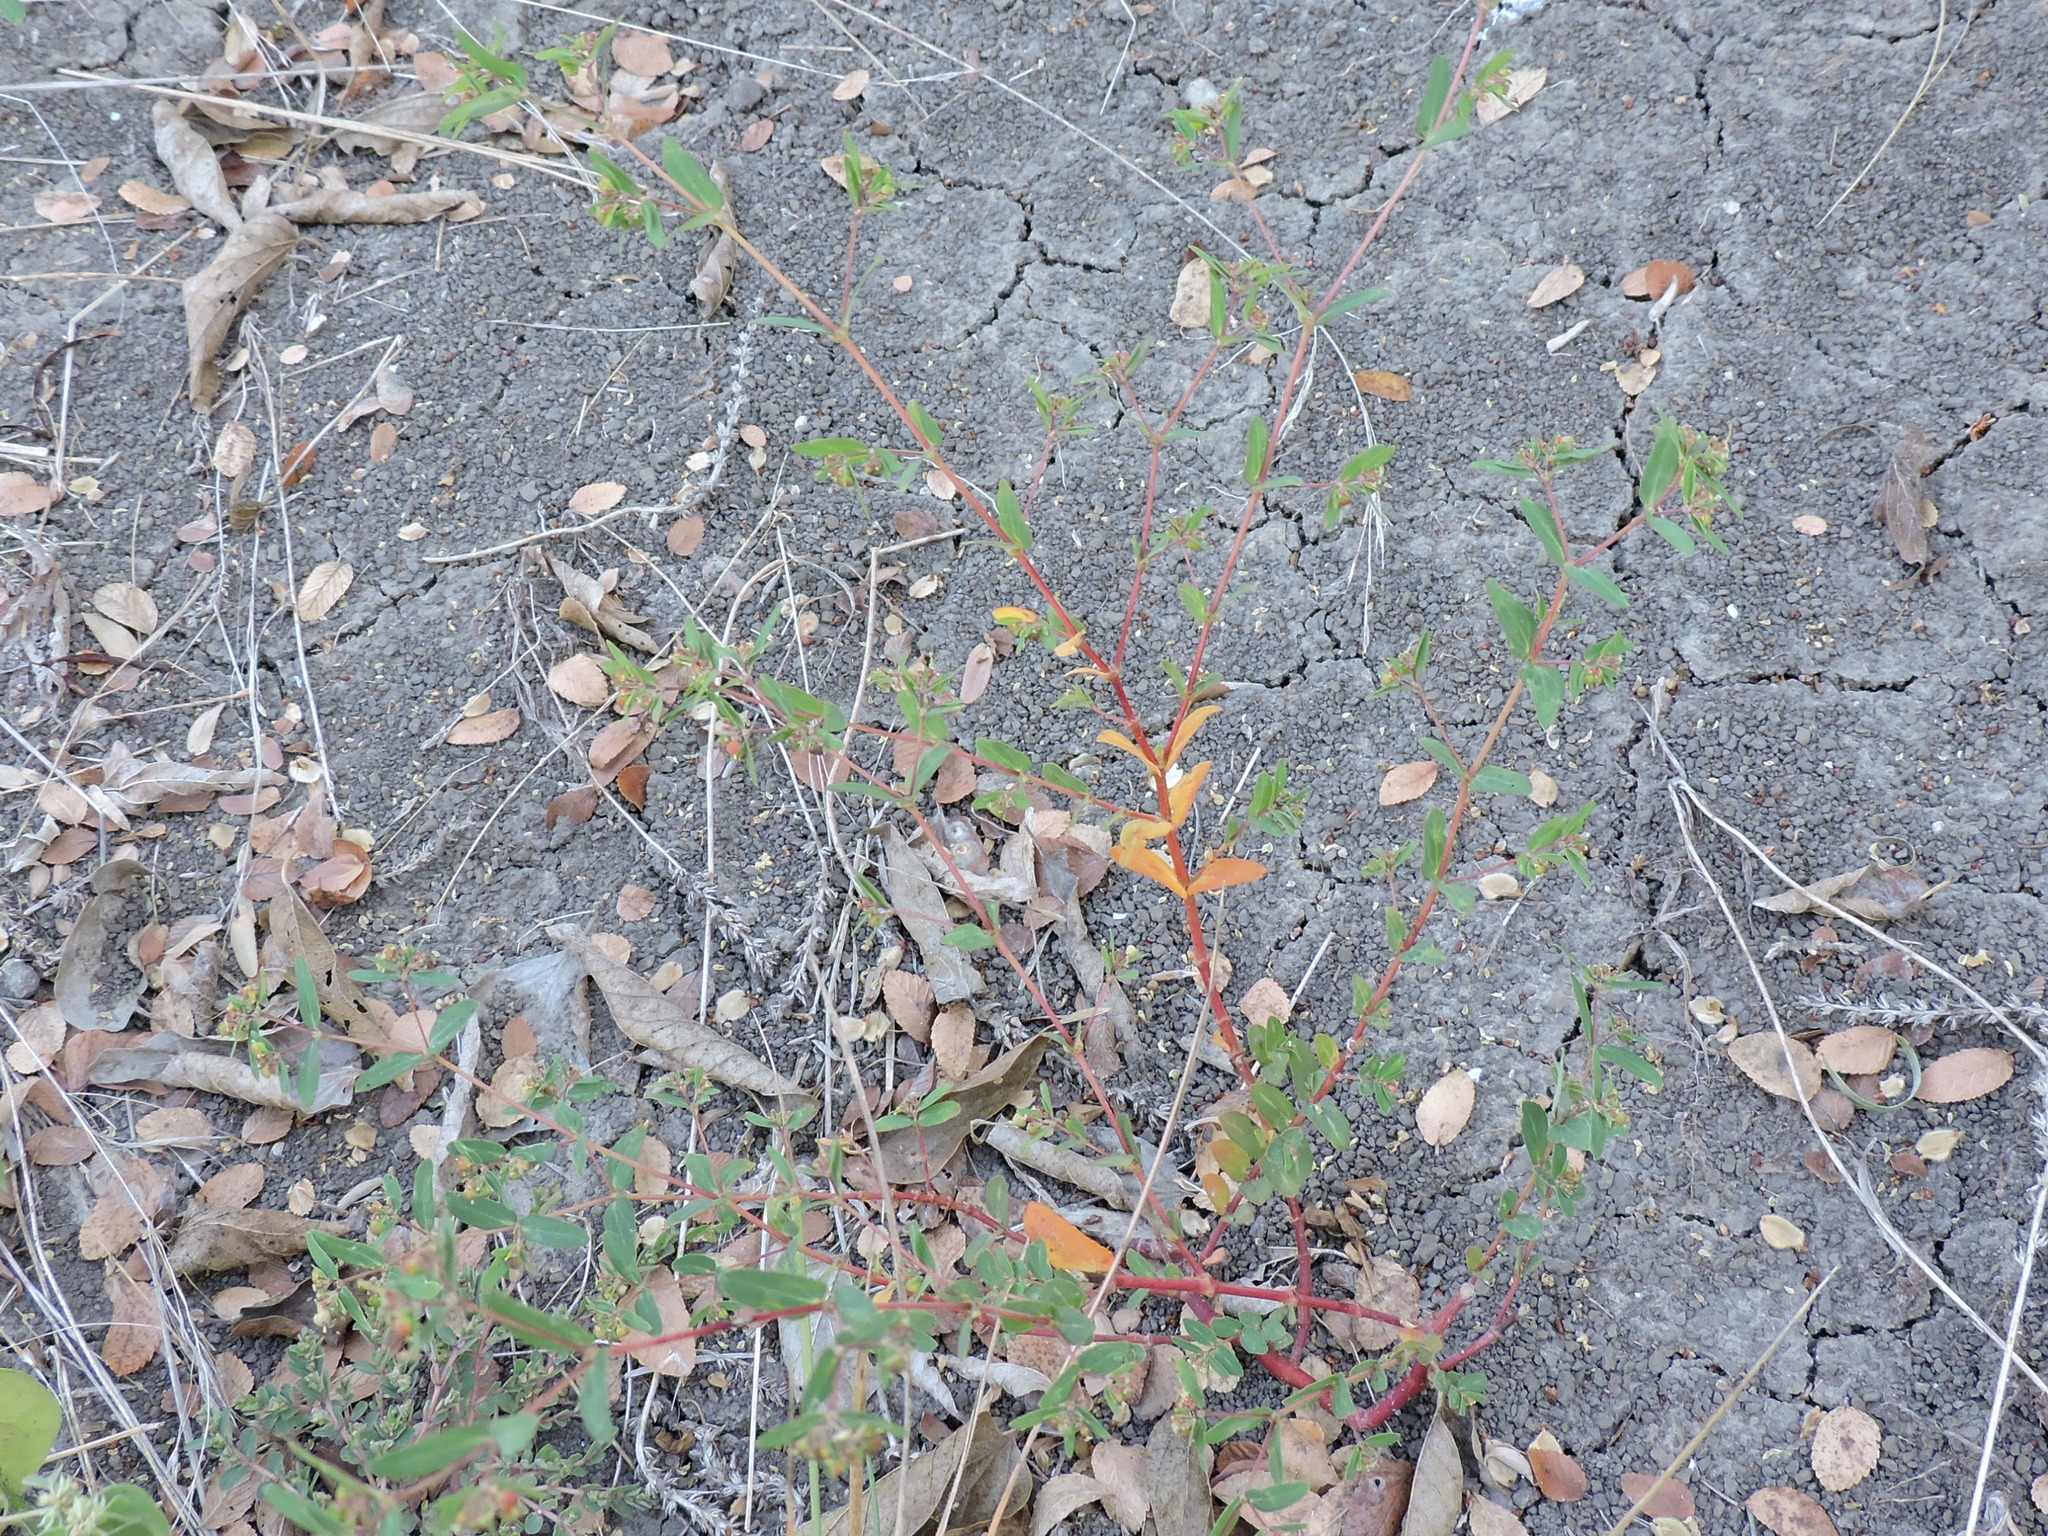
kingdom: Plantae
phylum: Tracheophyta
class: Magnoliopsida
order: Malpighiales
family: Euphorbiaceae
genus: Euphorbia
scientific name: Euphorbia nutans
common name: Eyebane
